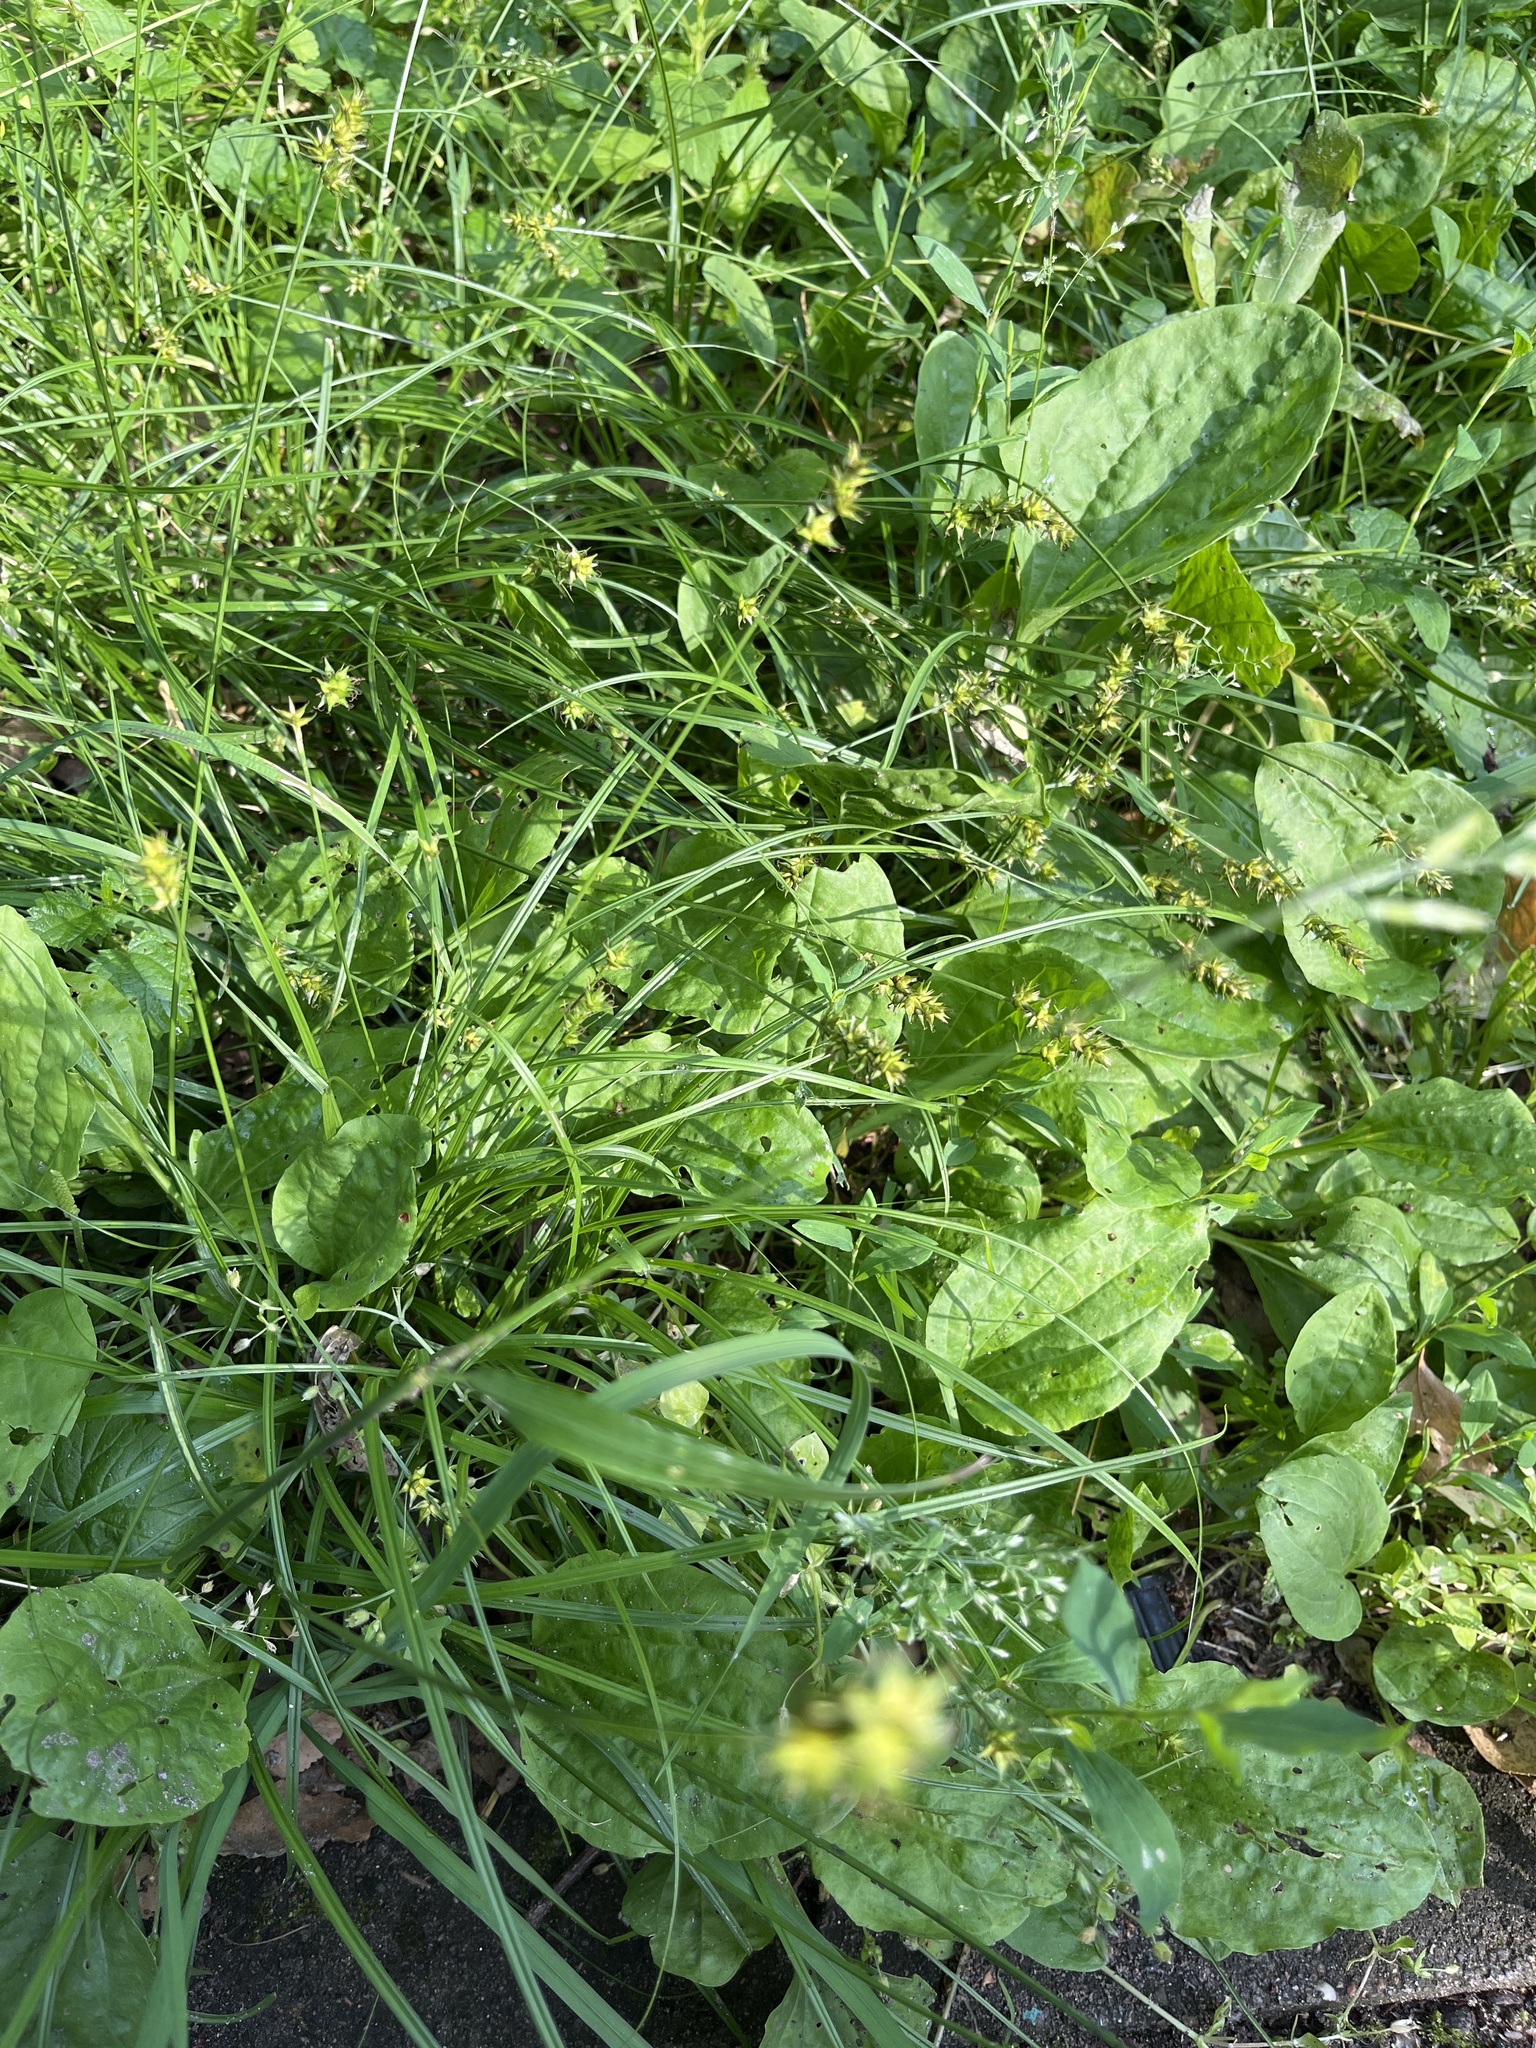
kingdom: Plantae
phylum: Tracheophyta
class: Liliopsida
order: Poales
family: Cyperaceae
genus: Carex
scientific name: Carex spicata
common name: Spiked sedge
